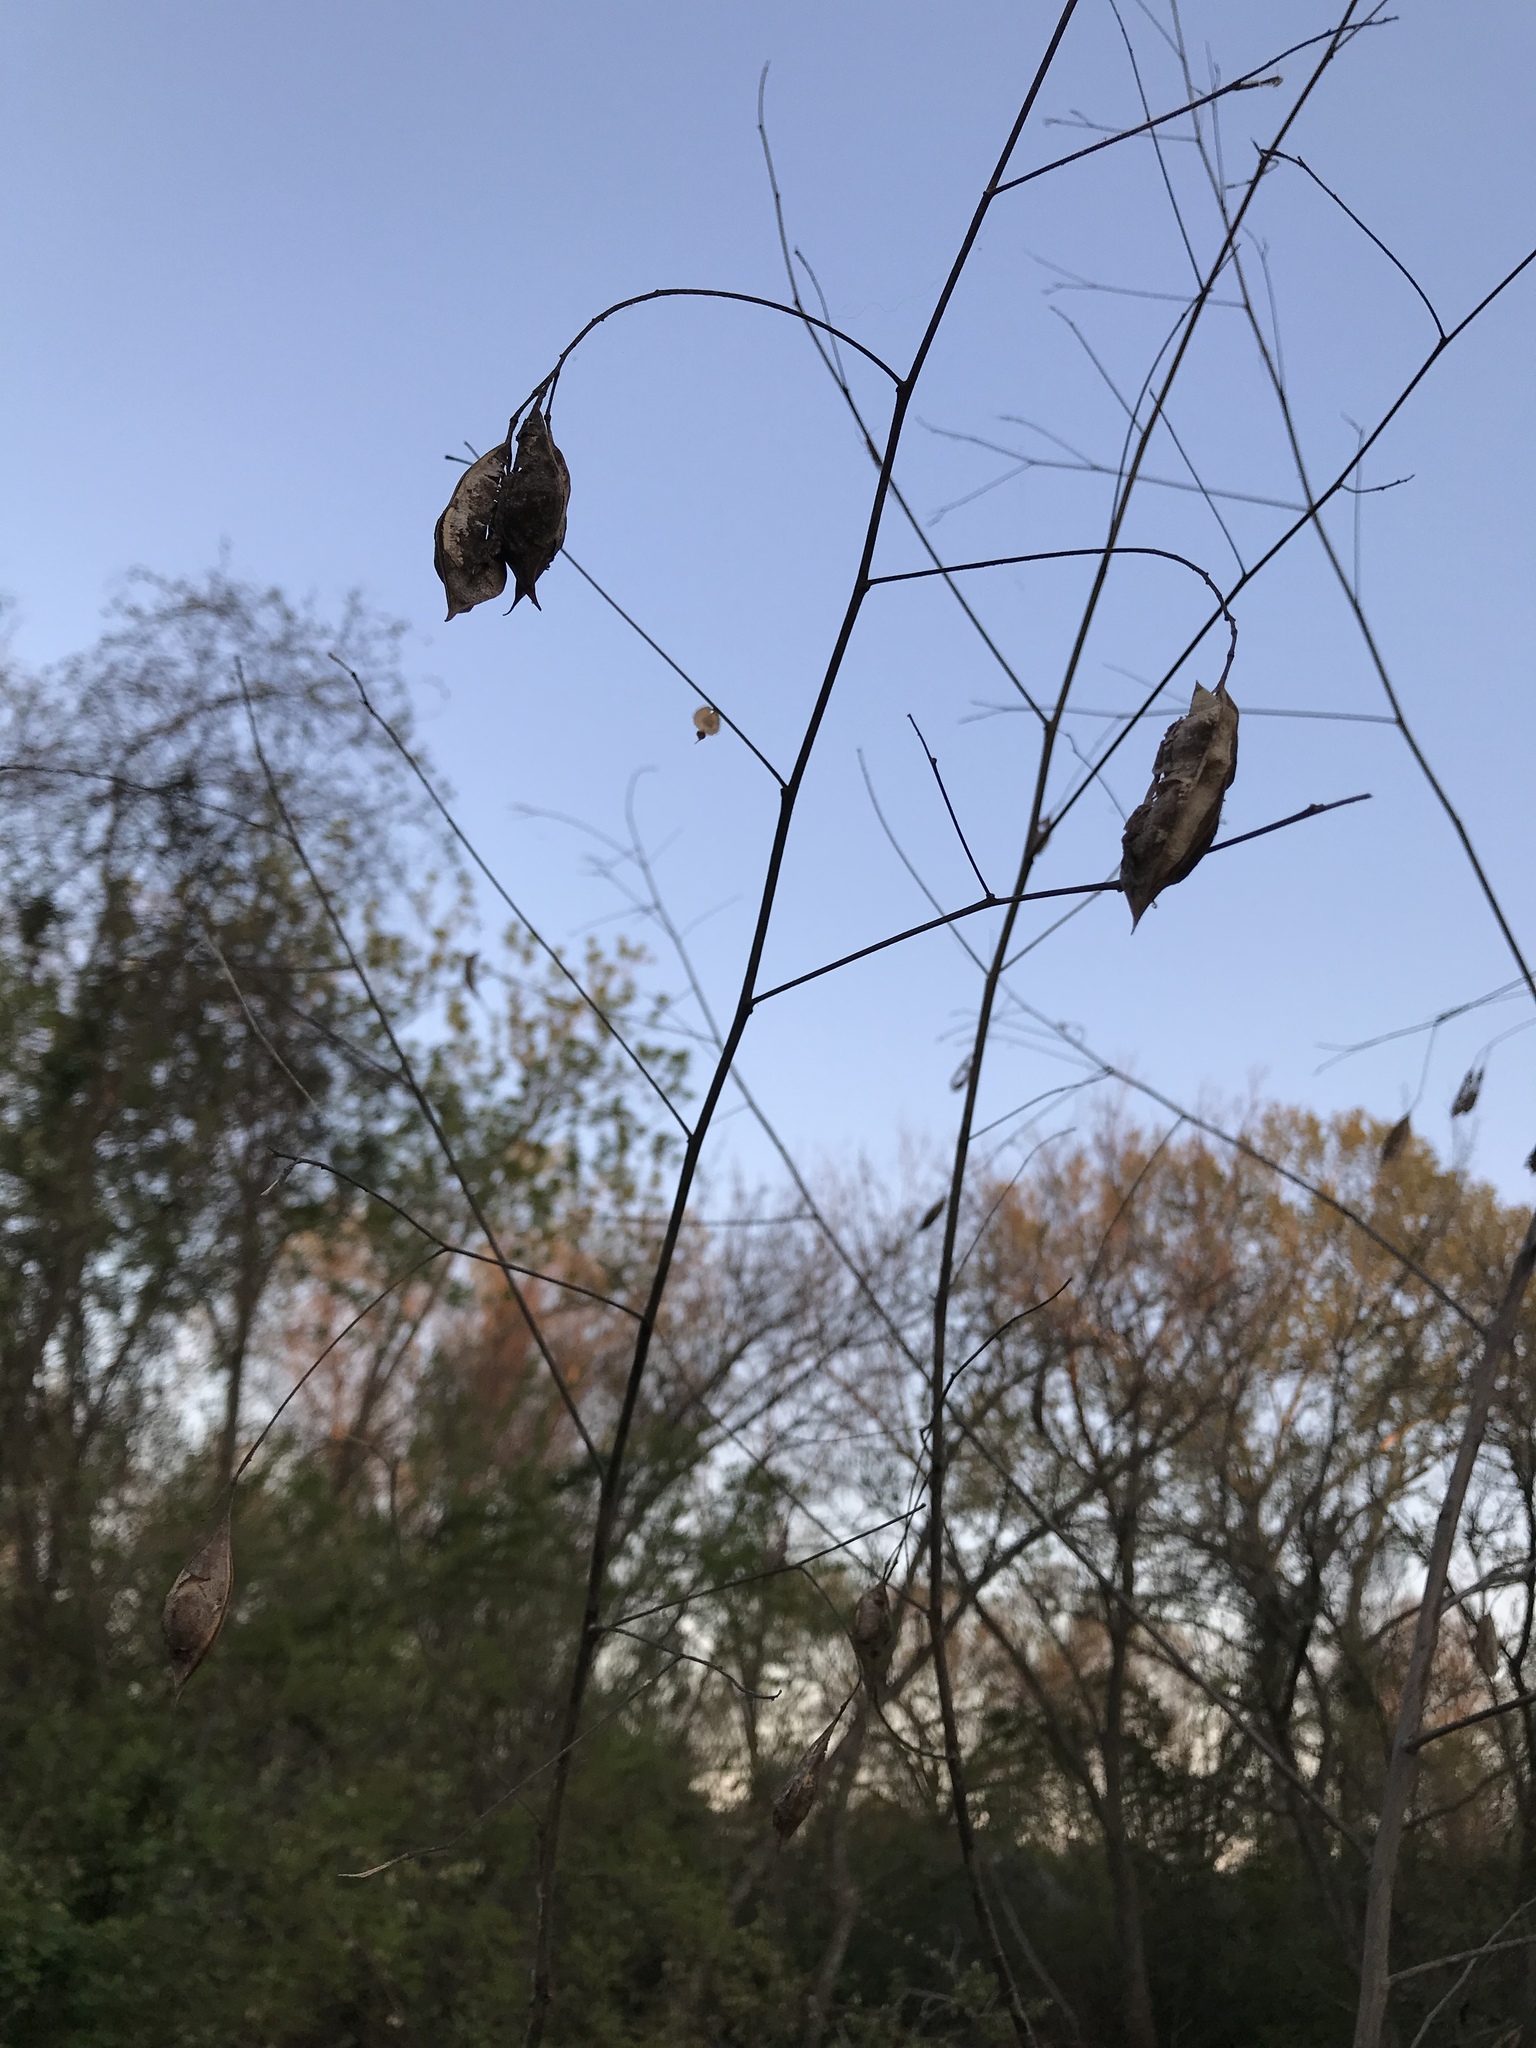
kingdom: Plantae
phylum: Tracheophyta
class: Magnoliopsida
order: Fabales
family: Fabaceae
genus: Sesbania
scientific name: Sesbania vesicaria
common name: Bagpod
